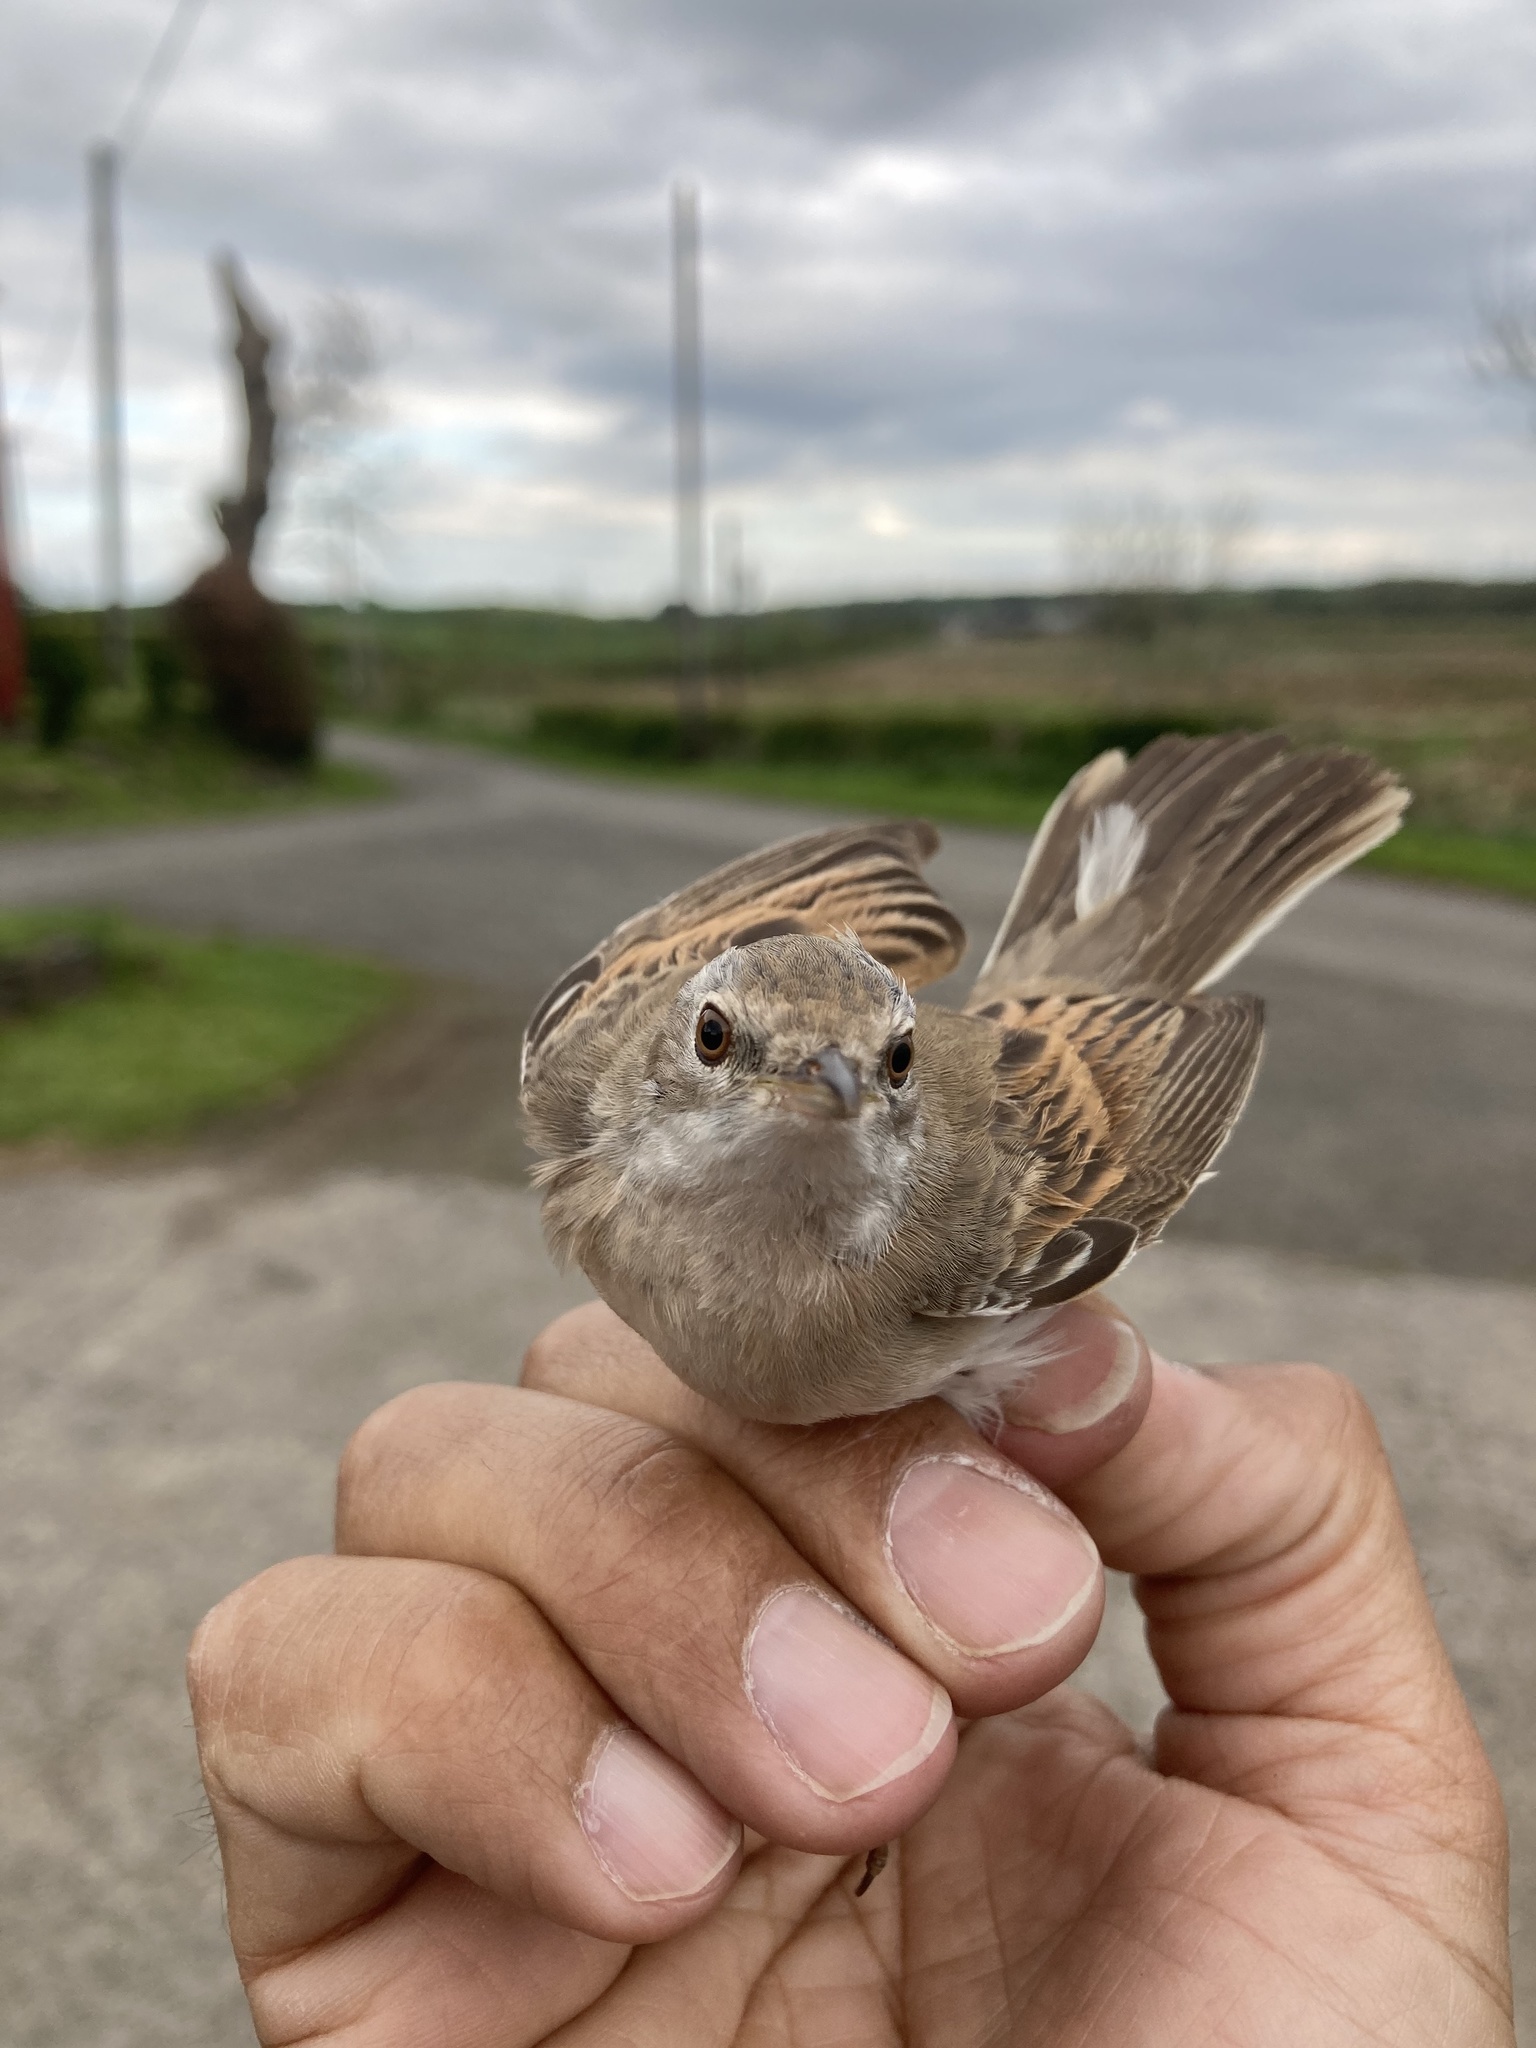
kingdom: Animalia
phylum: Chordata
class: Aves
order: Passeriformes
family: Sylviidae
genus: Sylvia
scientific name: Sylvia communis
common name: Common whitethroat
